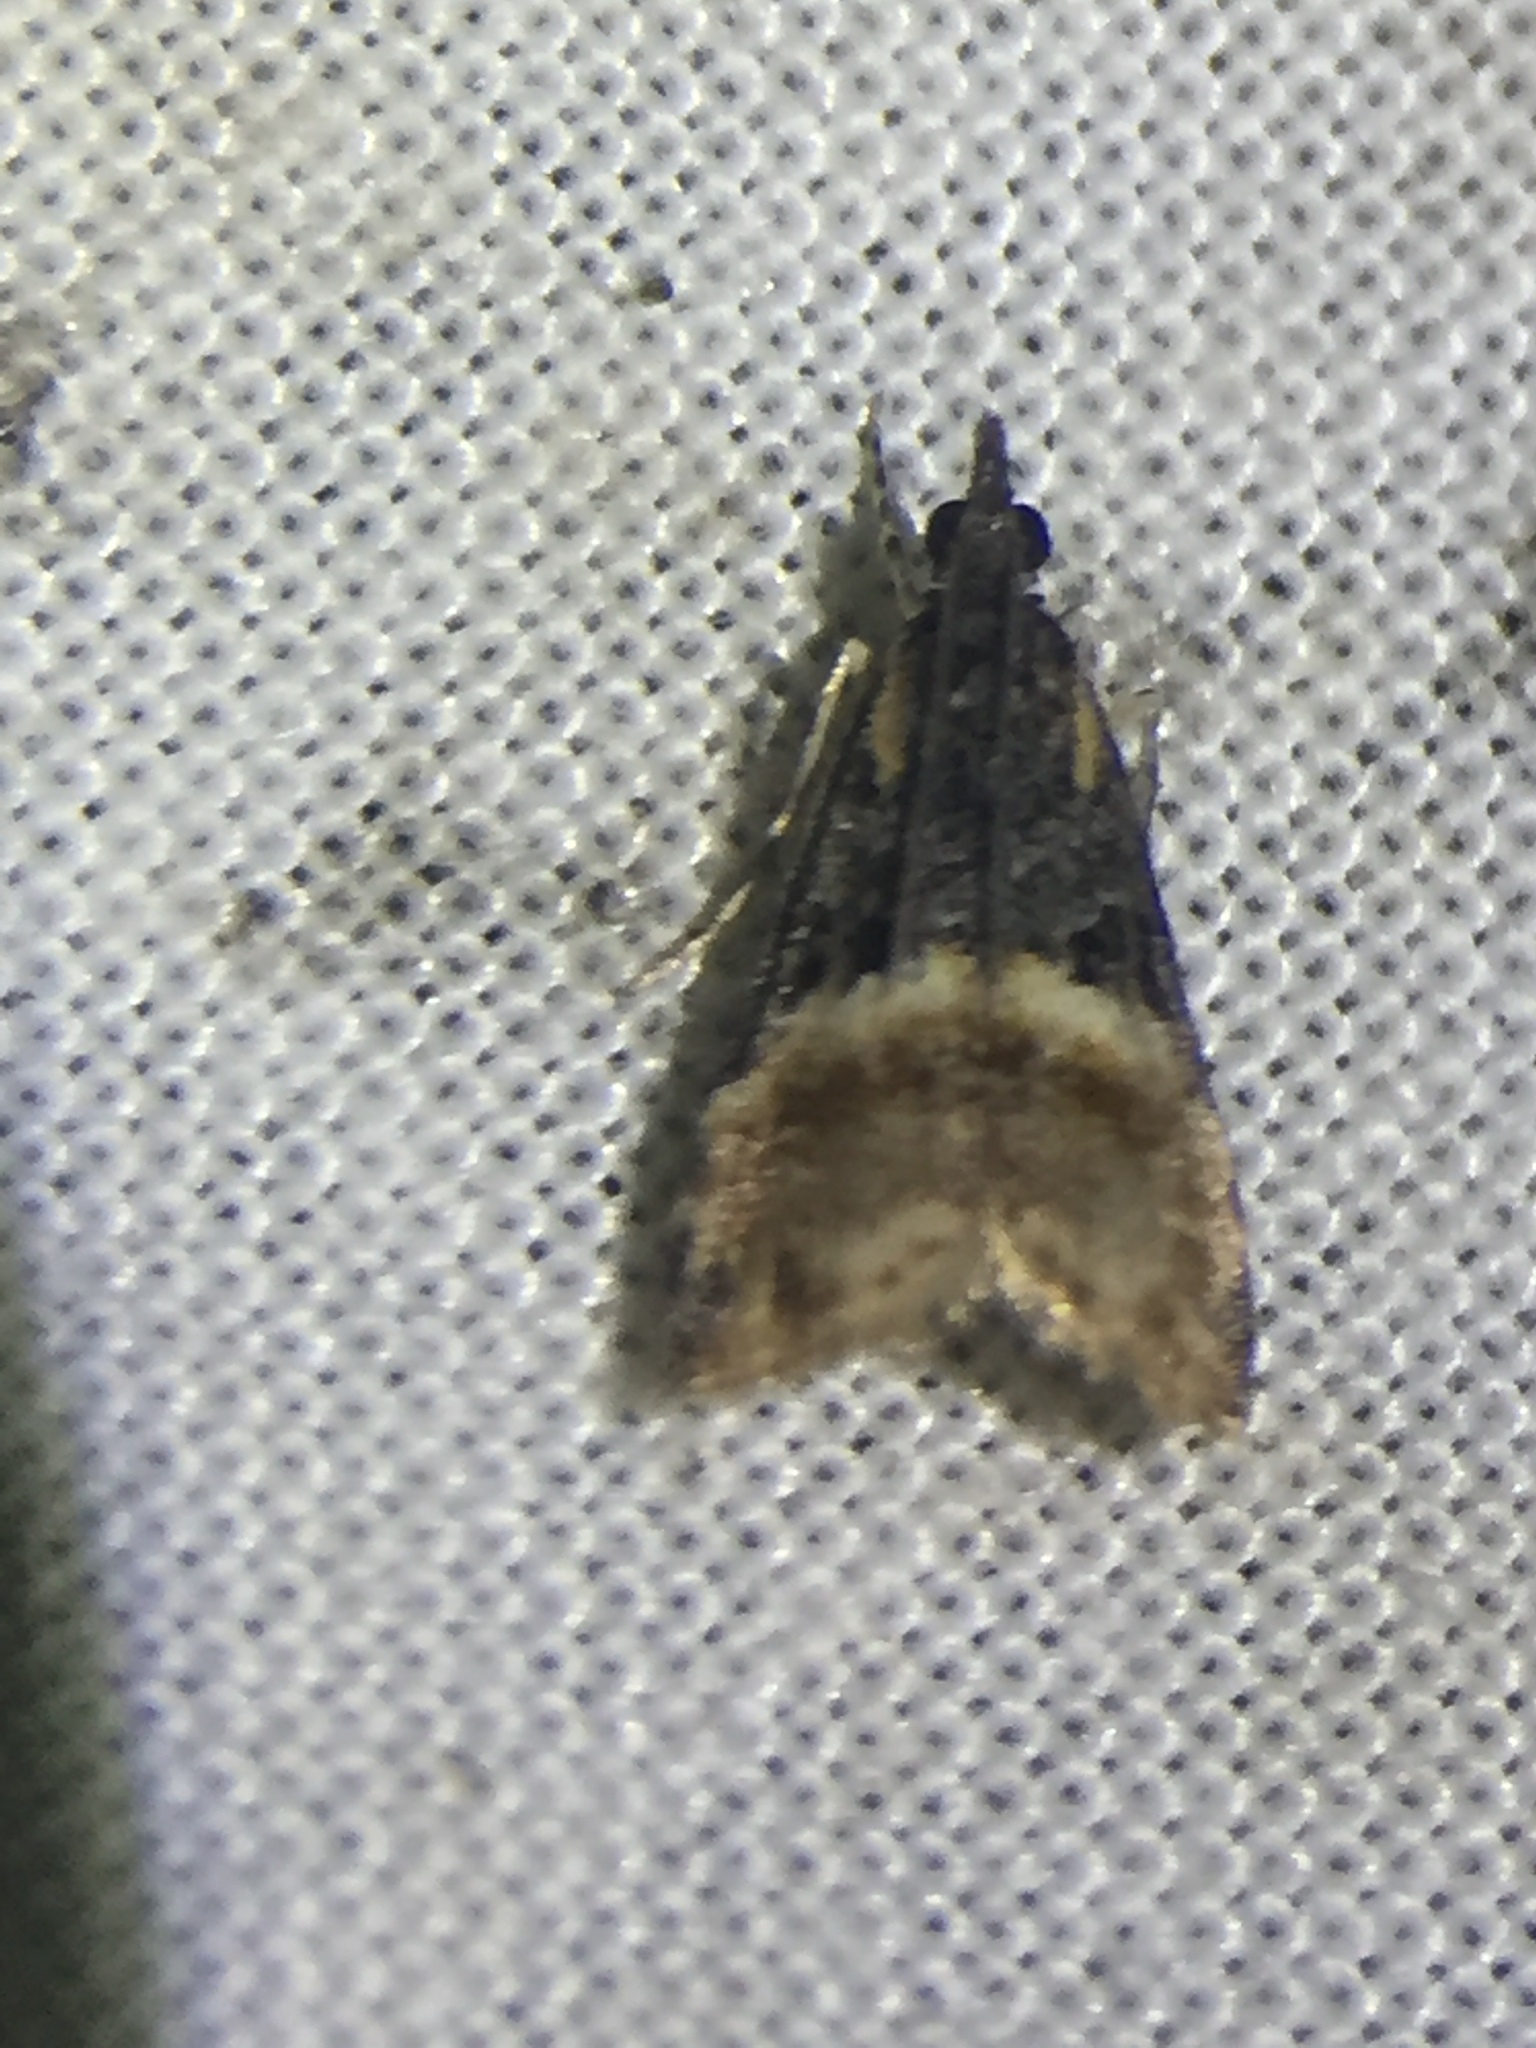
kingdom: Animalia
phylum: Arthropoda
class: Insecta
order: Lepidoptera
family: Crambidae
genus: Eudonia
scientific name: Eudonia chlamydota
